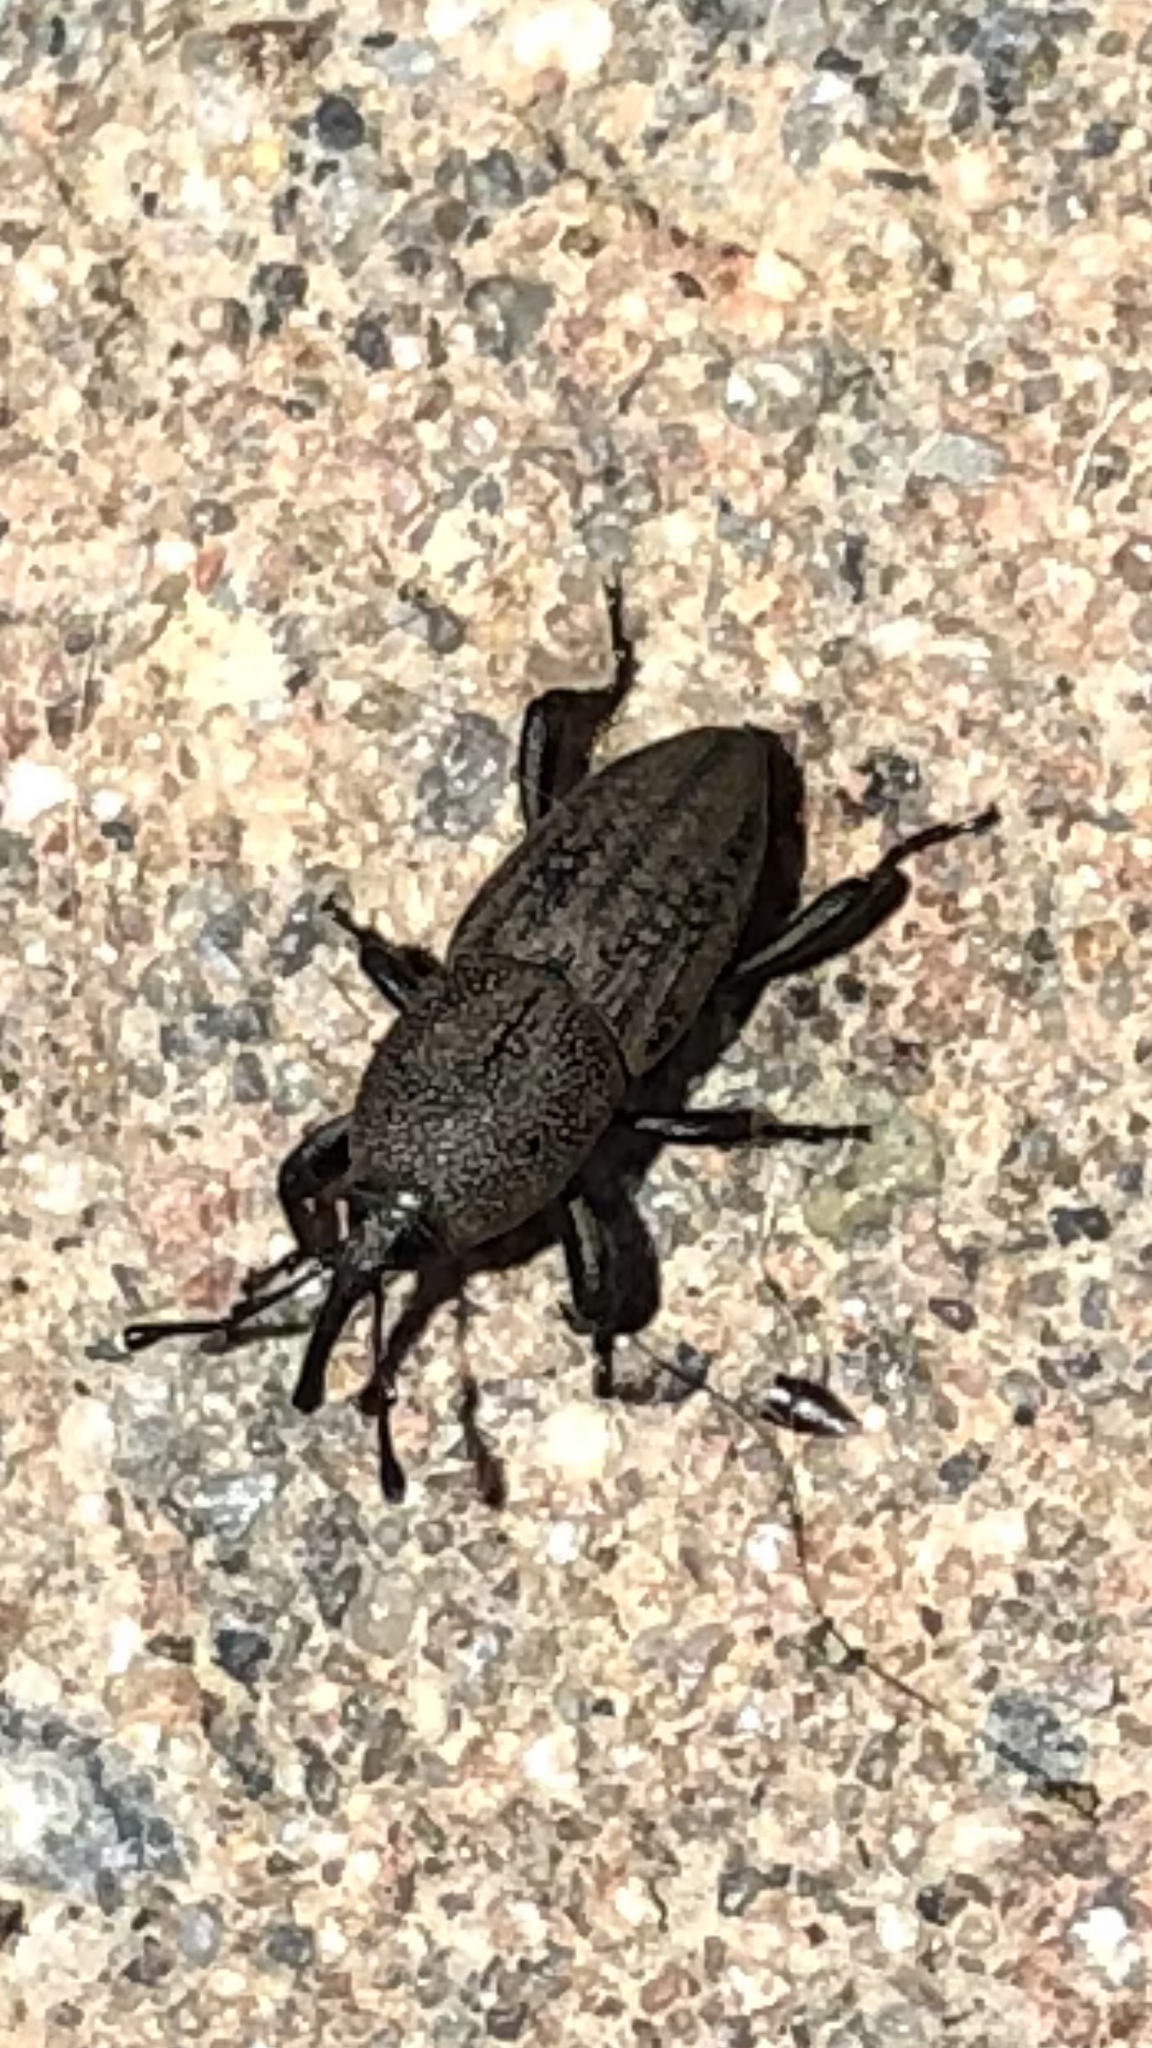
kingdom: Animalia
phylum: Arthropoda
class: Insecta
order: Coleoptera
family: Dryophthoridae
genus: Sphenophorus
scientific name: Sphenophorus interstitialis
